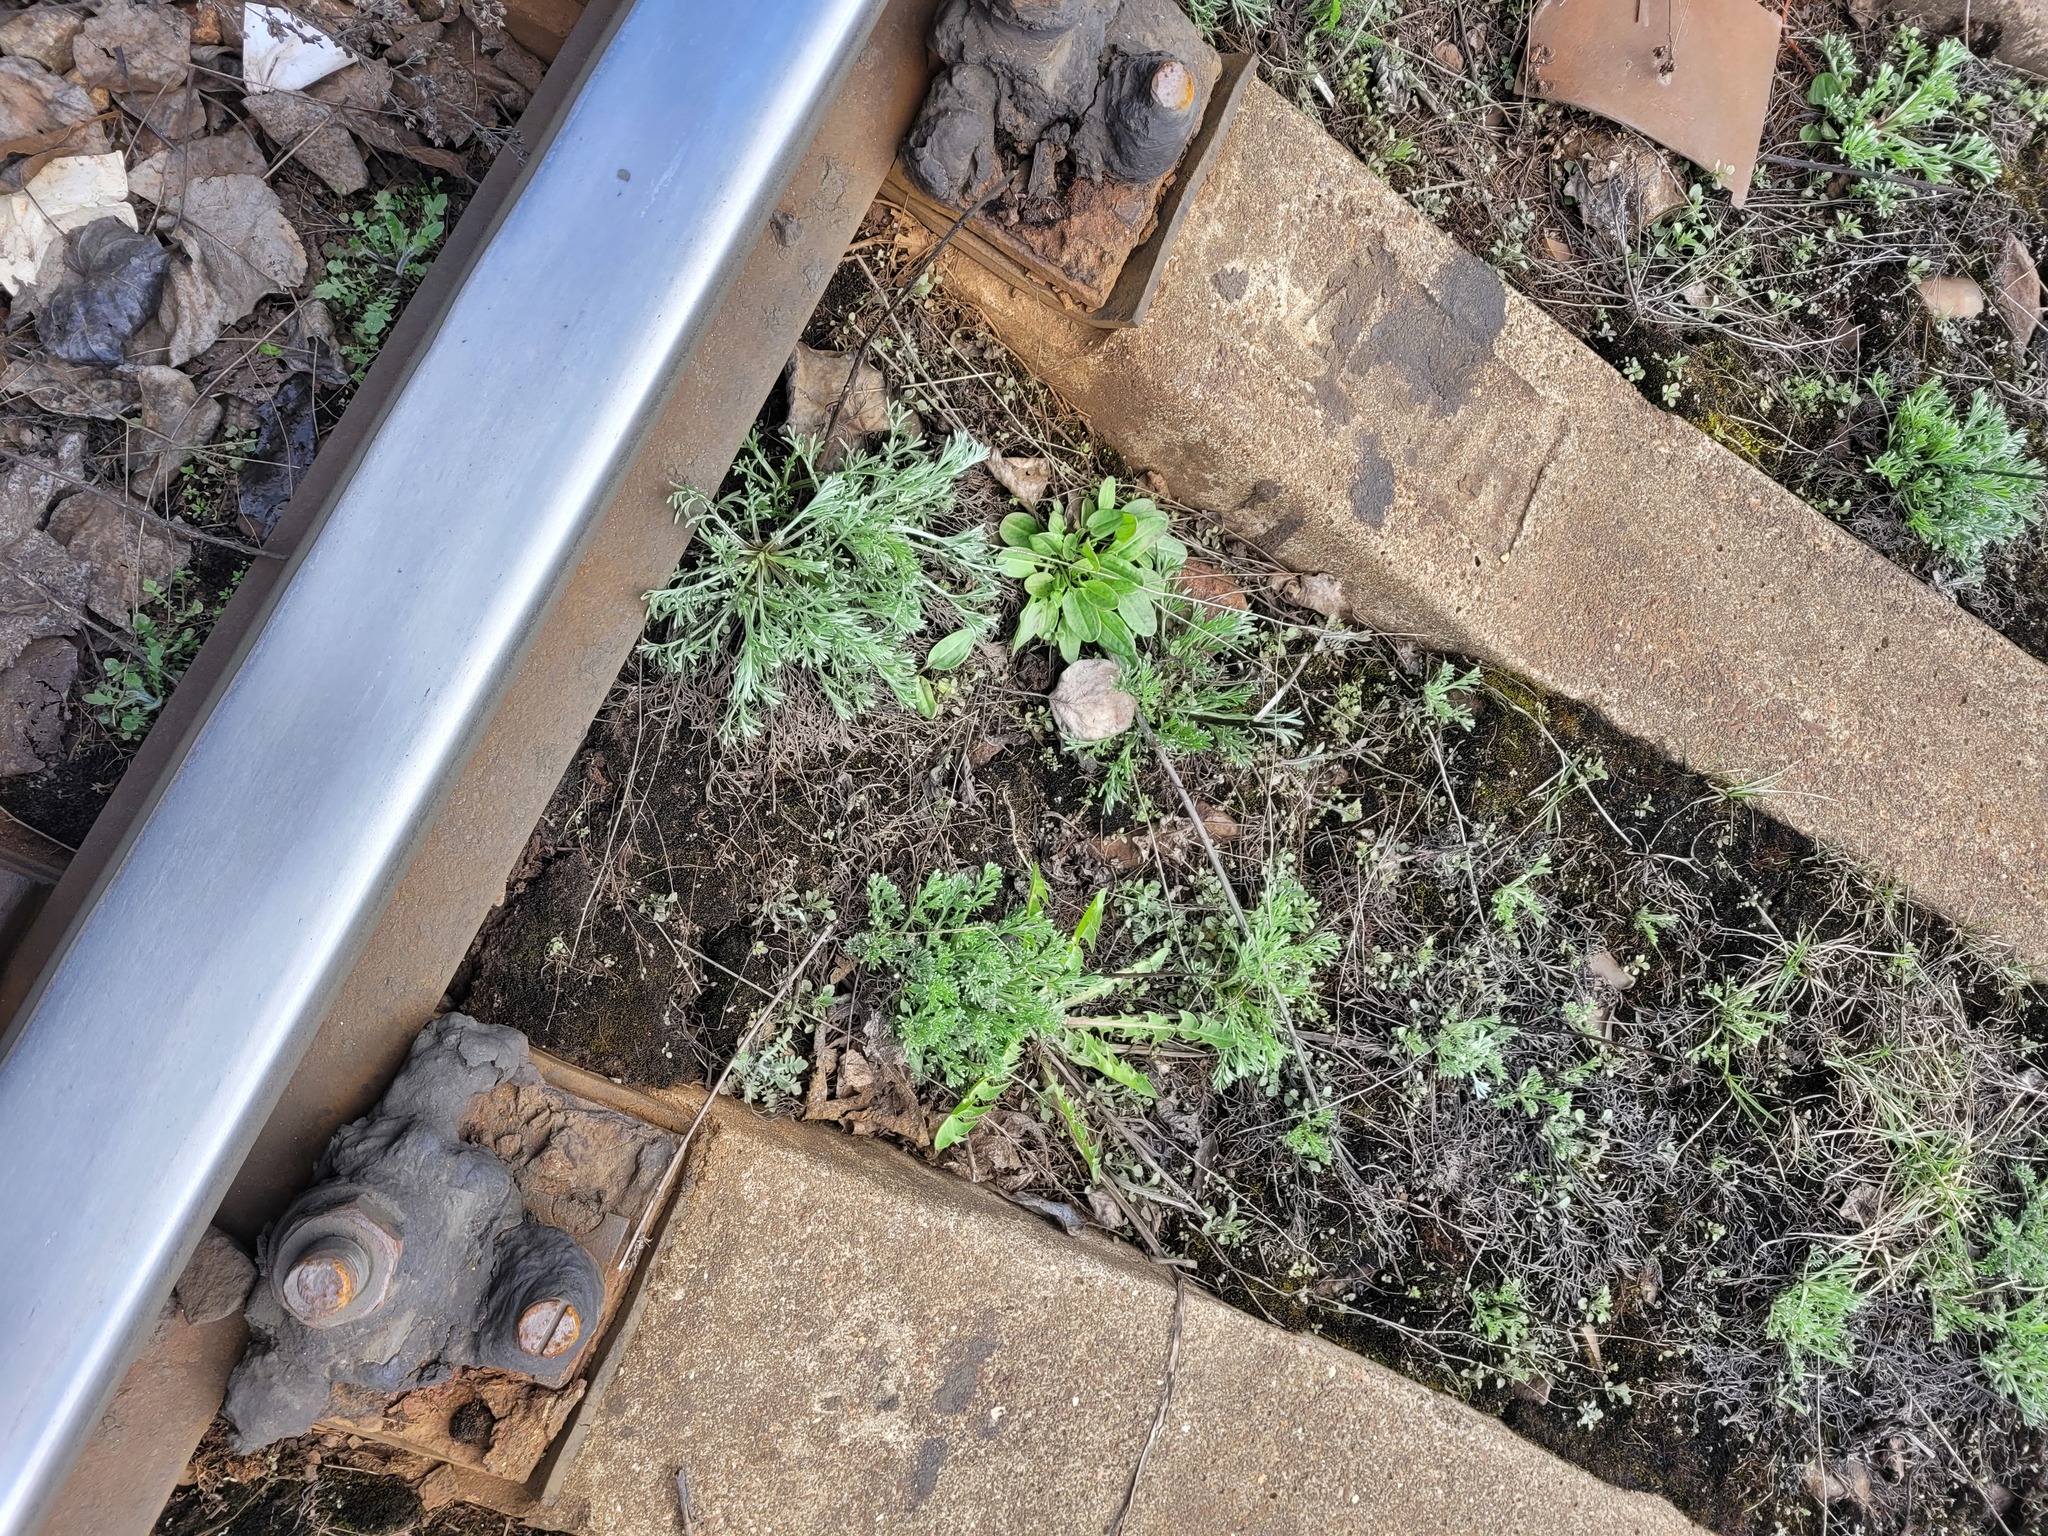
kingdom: Plantae
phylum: Tracheophyta
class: Magnoliopsida
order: Asterales
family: Asteraceae
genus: Artemisia
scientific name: Artemisia campestris
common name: Field wormwood
